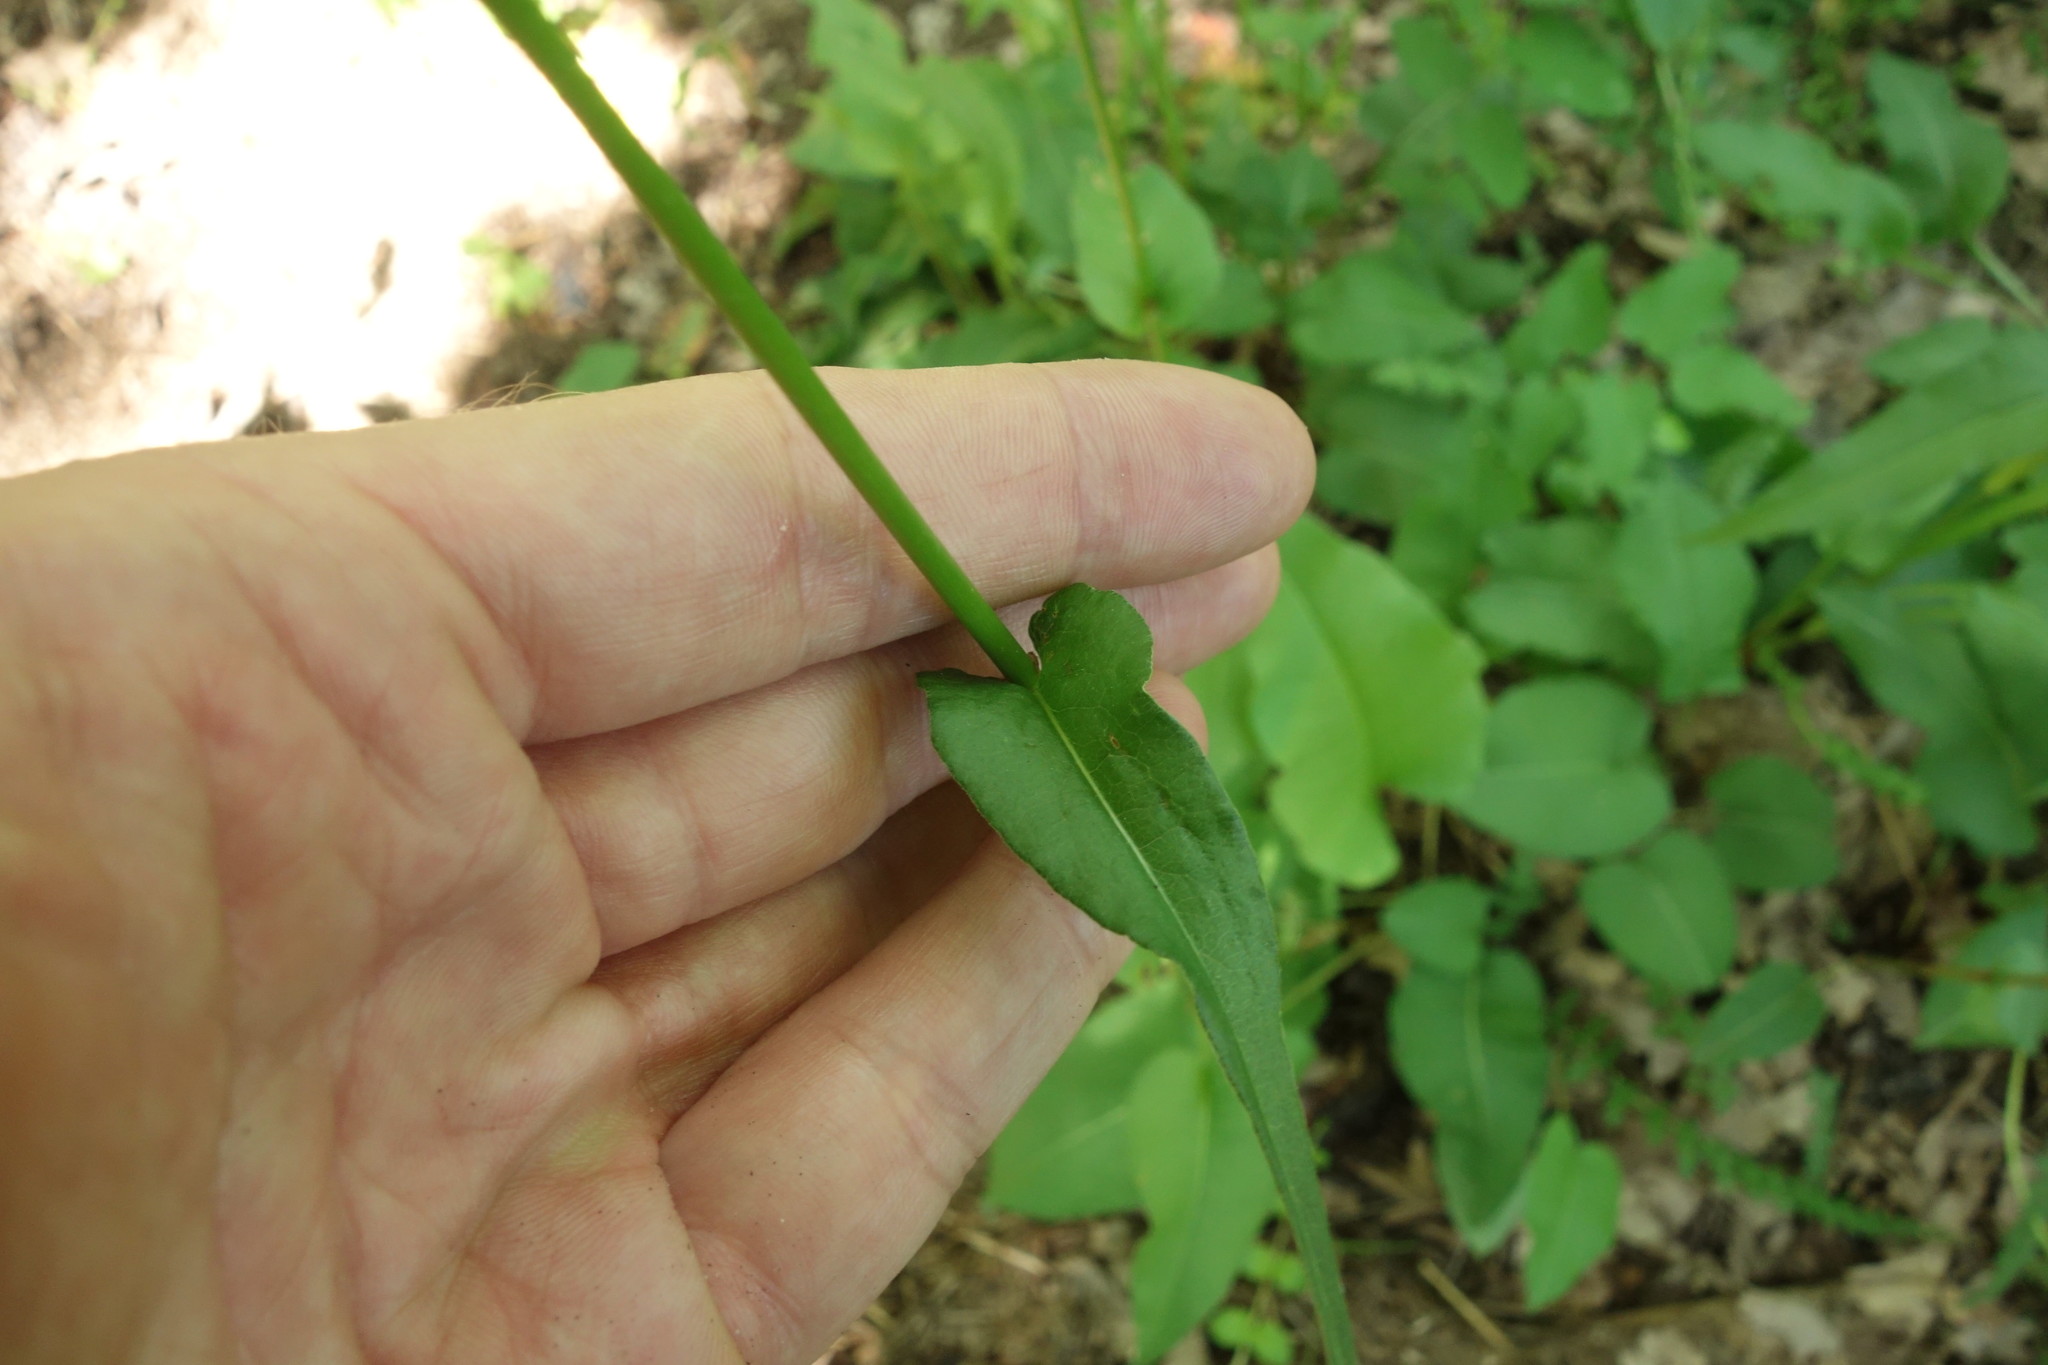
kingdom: Plantae
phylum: Tracheophyta
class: Magnoliopsida
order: Caryophyllales
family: Polygonaceae
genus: Bistorta
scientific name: Bistorta officinalis
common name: Common bistort
